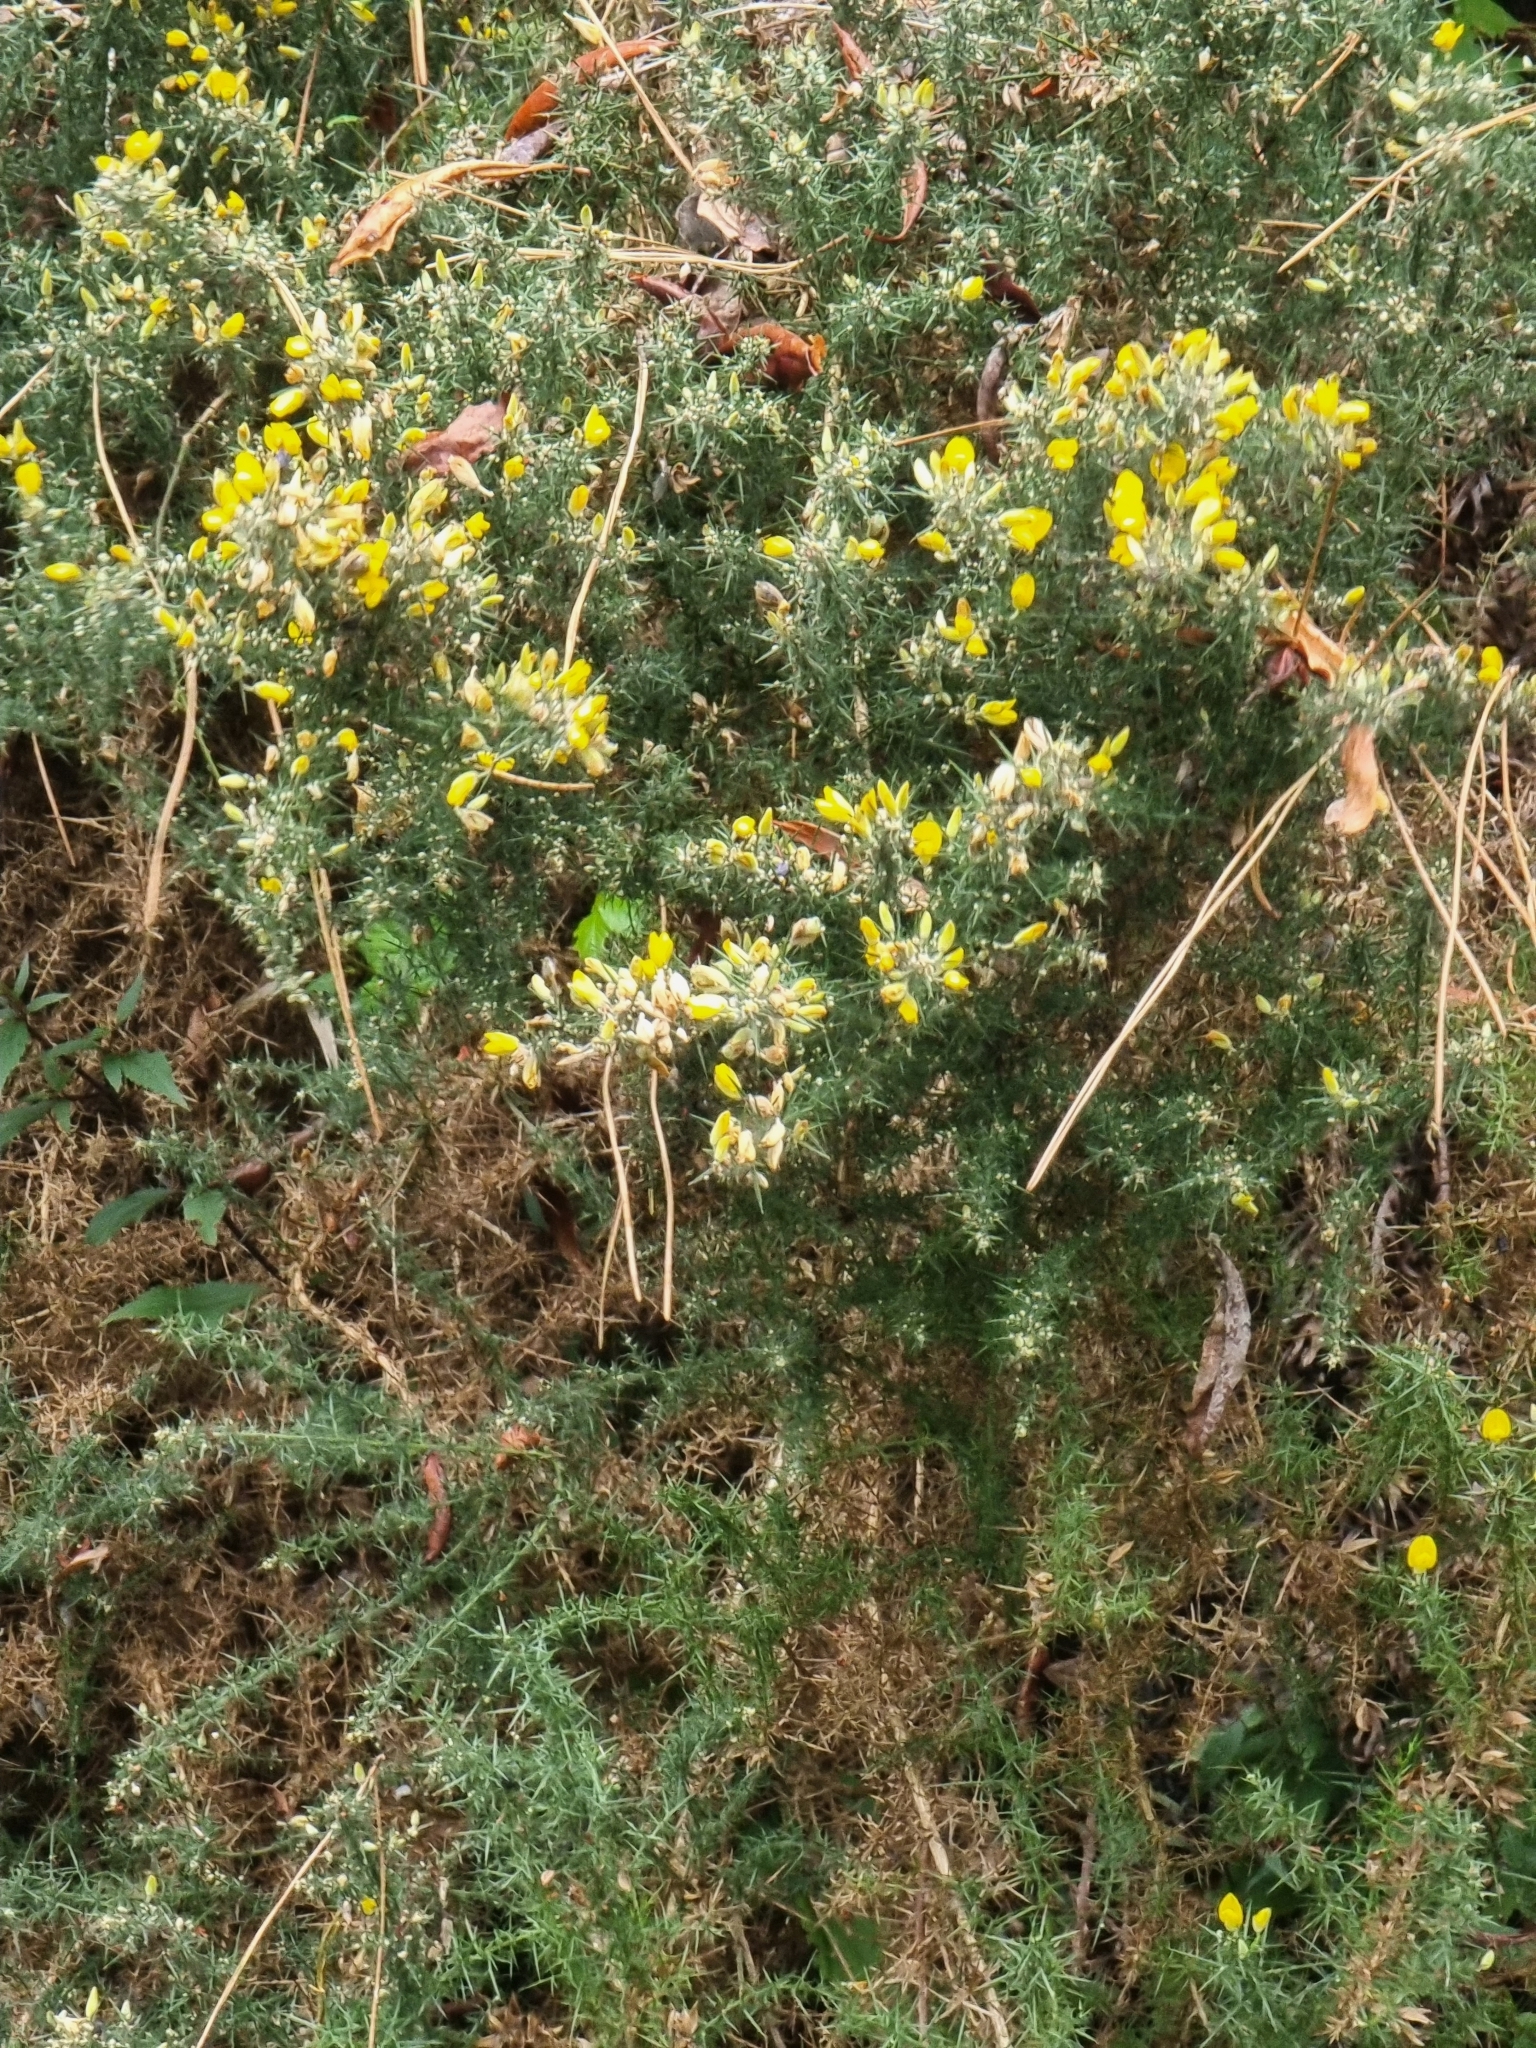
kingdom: Plantae
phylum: Tracheophyta
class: Magnoliopsida
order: Fabales
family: Fabaceae
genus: Ulex
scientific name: Ulex europaeus
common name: Common gorse
